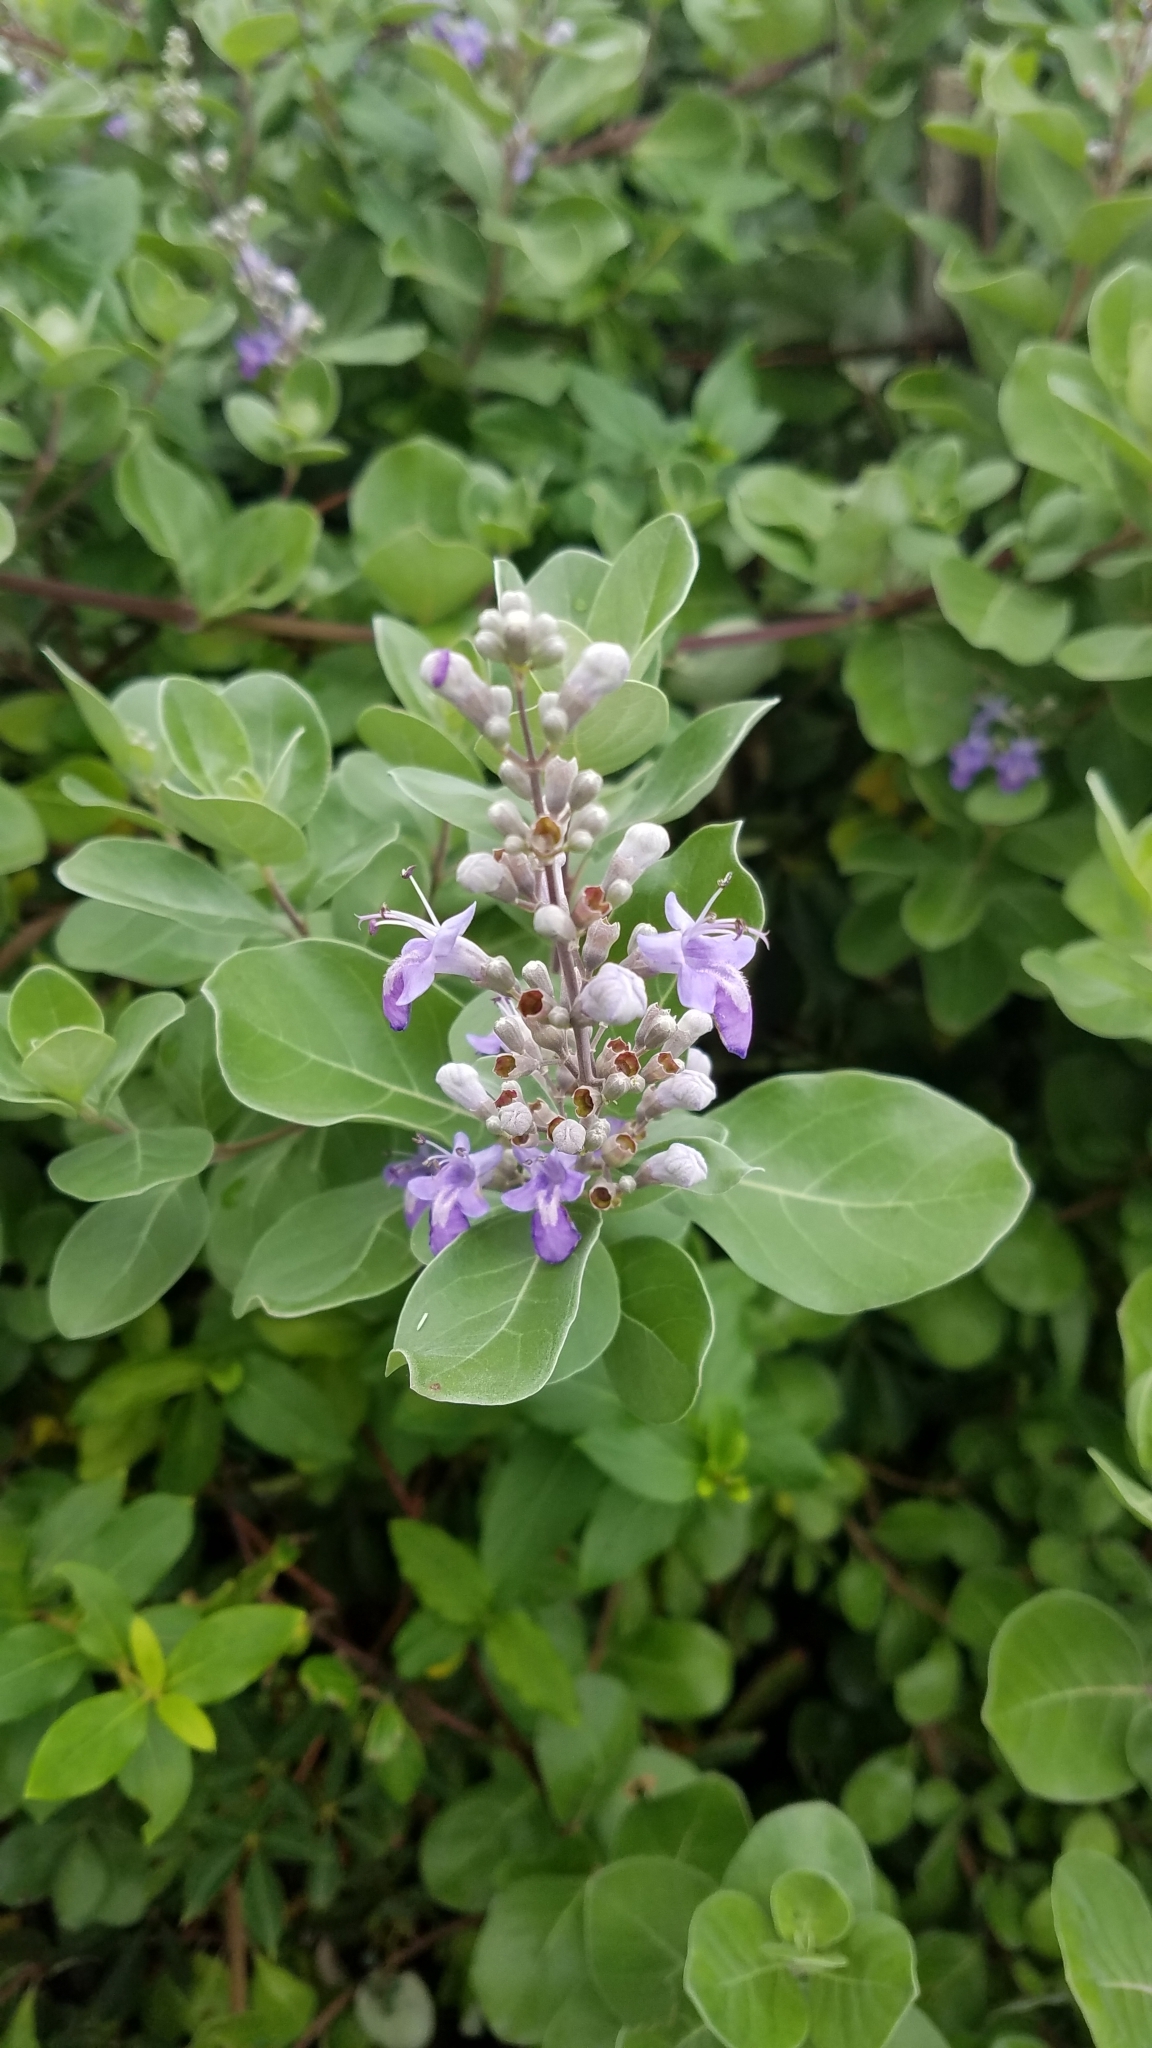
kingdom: Plantae
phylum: Tracheophyta
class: Magnoliopsida
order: Lamiales
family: Lamiaceae
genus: Vitex
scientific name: Vitex rotundifolia
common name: Beach vitex
